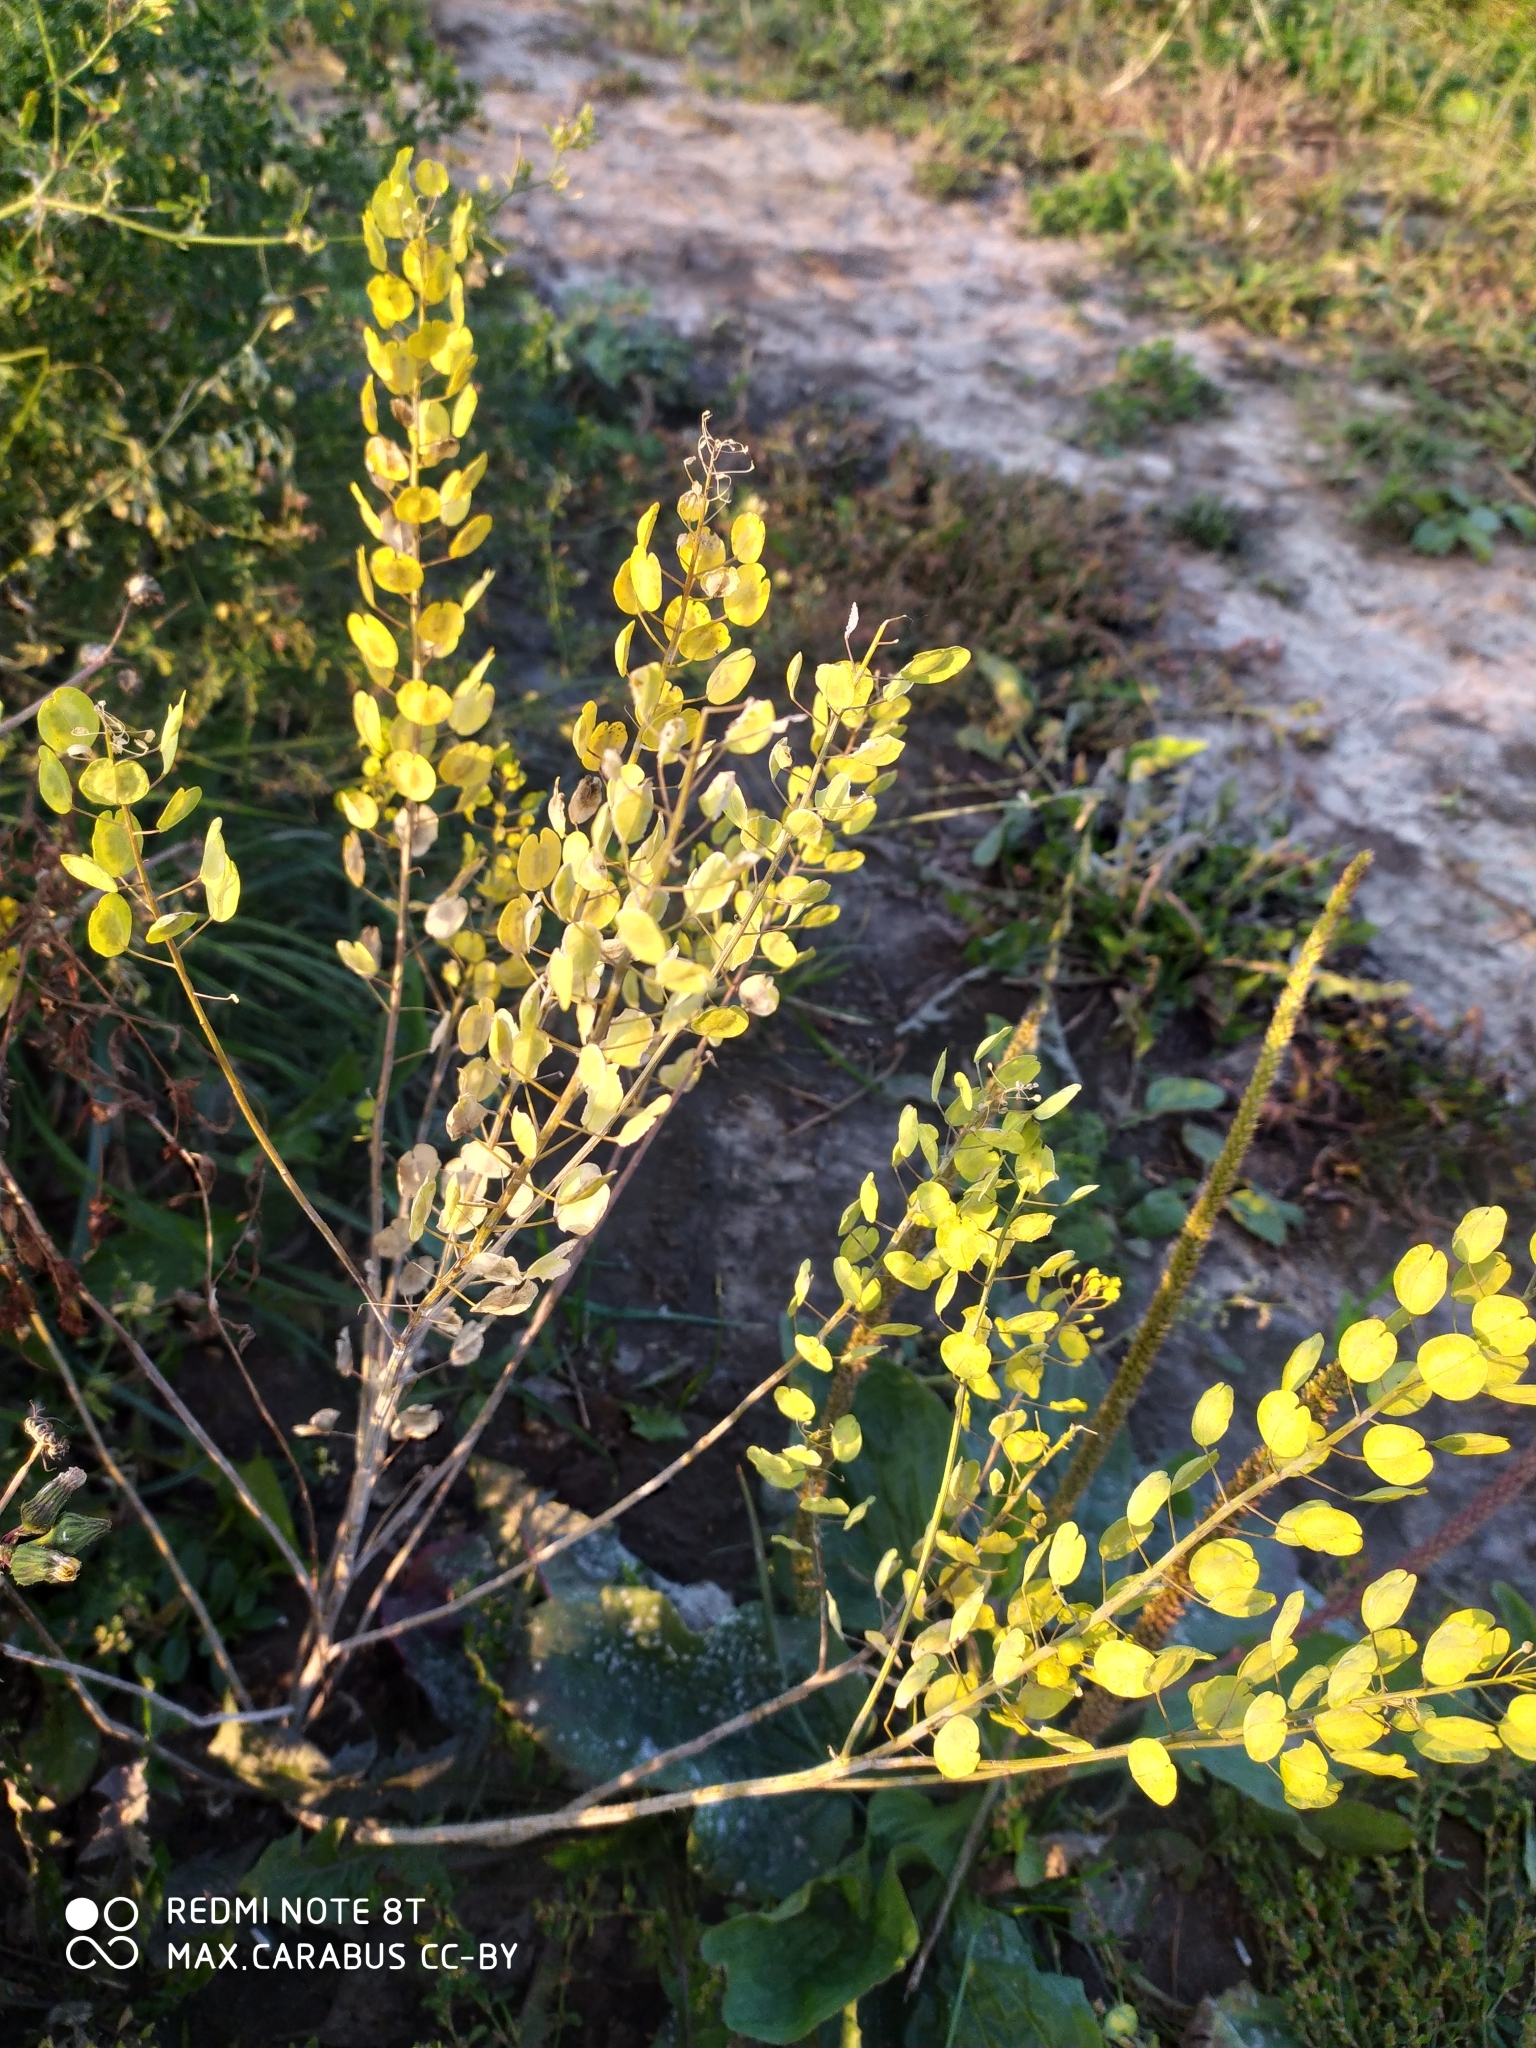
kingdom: Plantae
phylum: Tracheophyta
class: Magnoliopsida
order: Brassicales
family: Brassicaceae
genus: Thlaspi
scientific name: Thlaspi arvense
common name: Field pennycress
